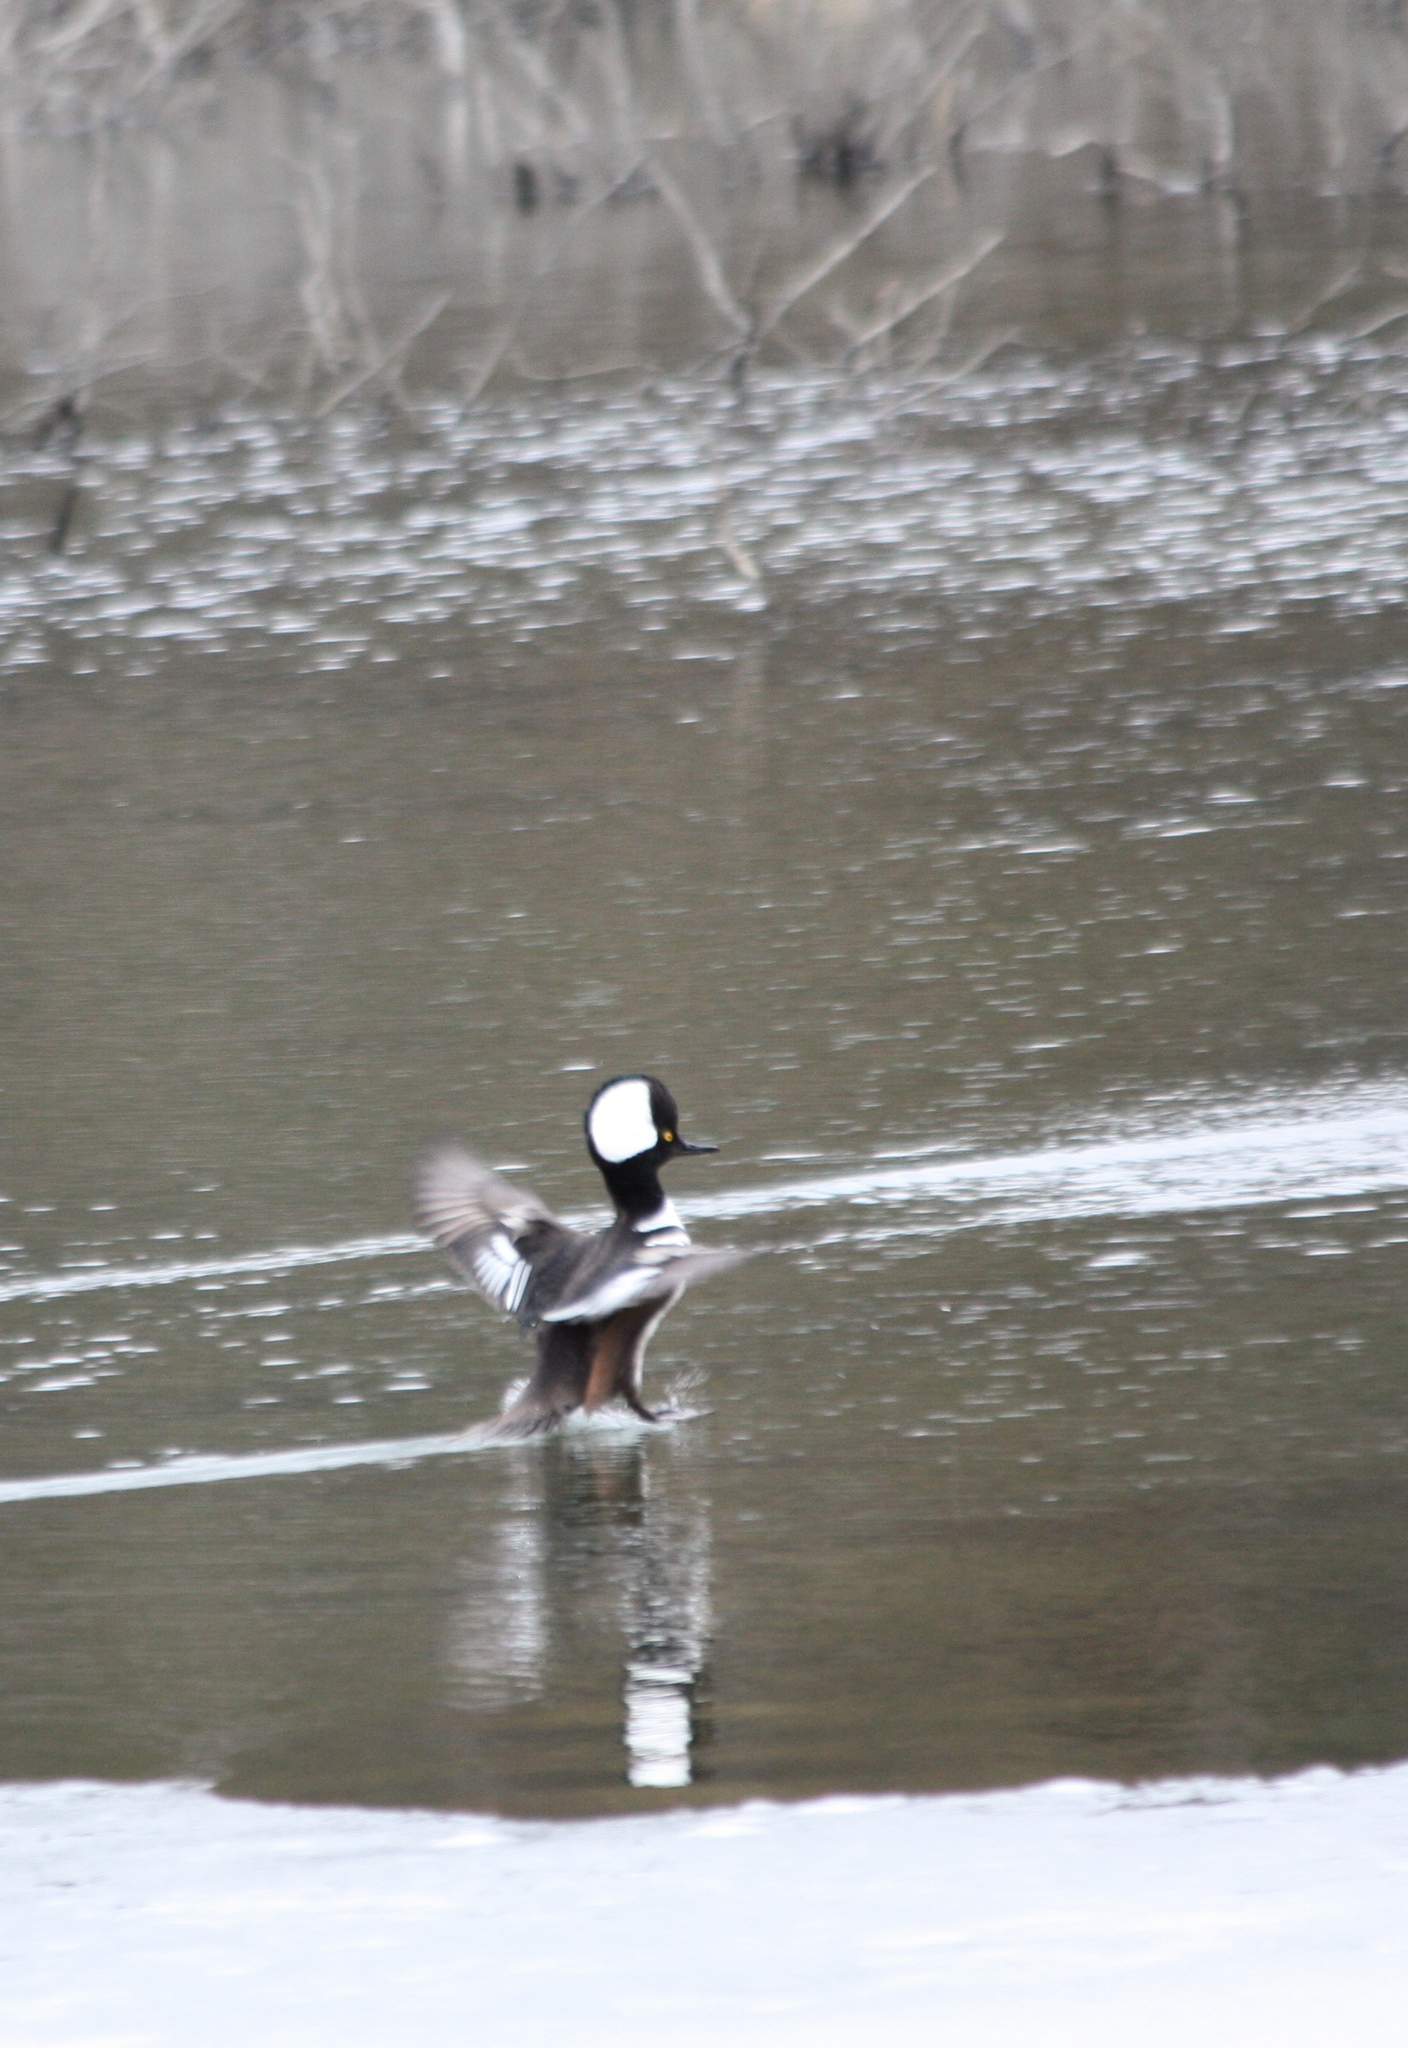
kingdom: Animalia
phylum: Chordata
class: Aves
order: Anseriformes
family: Anatidae
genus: Lophodytes
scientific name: Lophodytes cucullatus
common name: Hooded merganser
